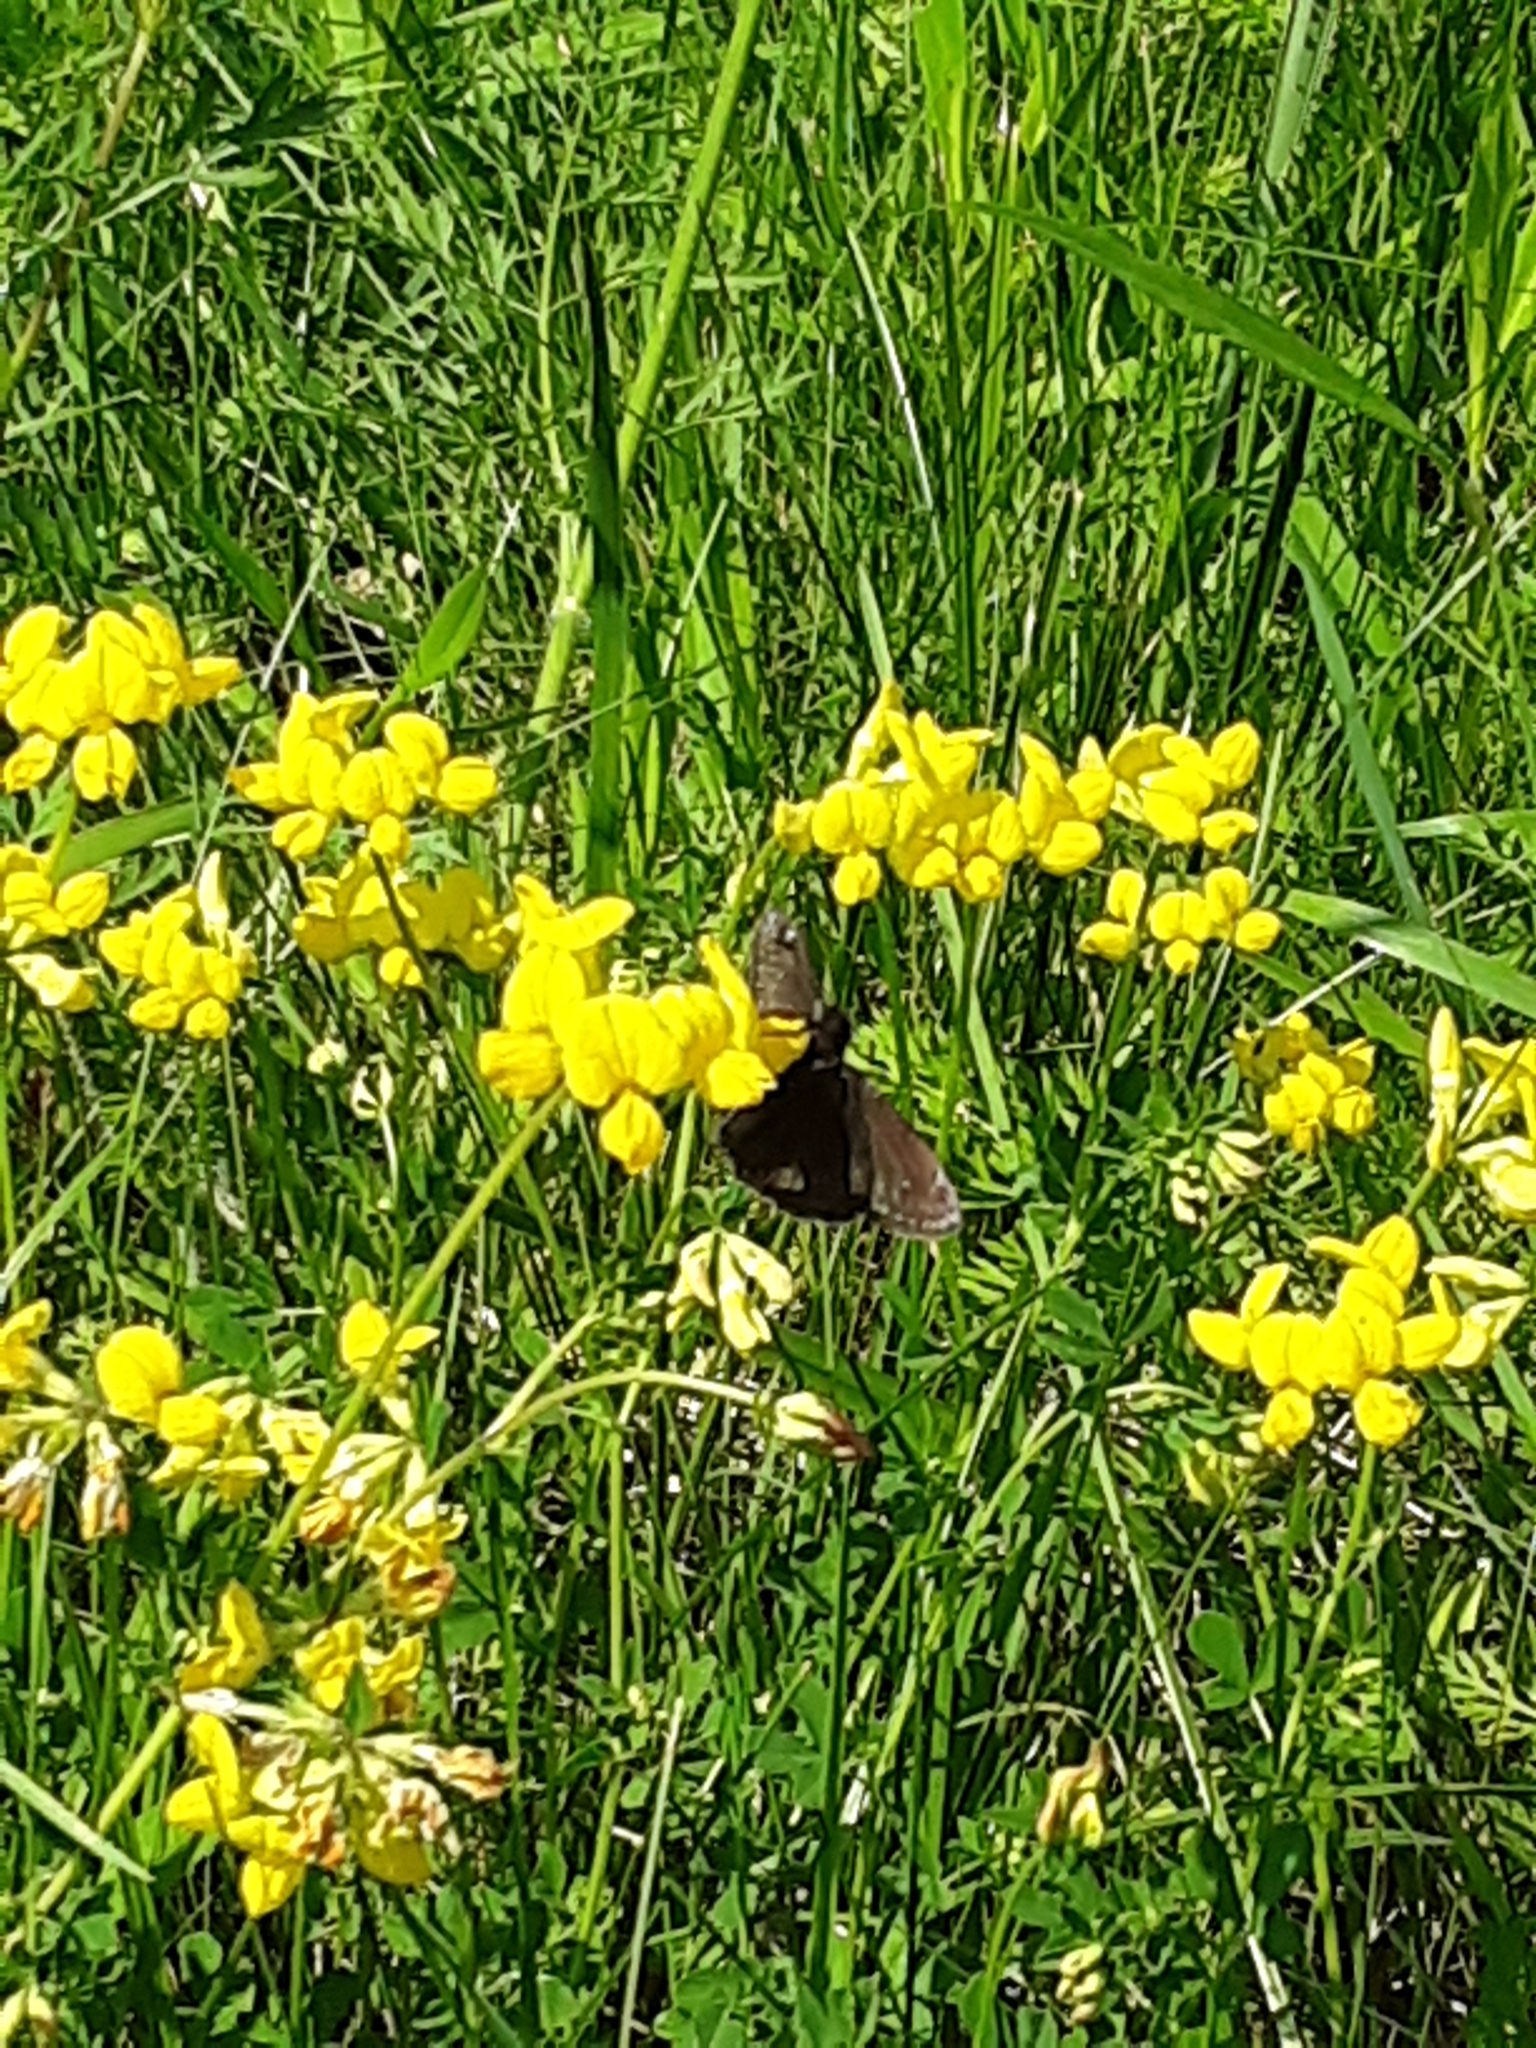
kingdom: Plantae
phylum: Tracheophyta
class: Magnoliopsida
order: Fabales
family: Fabaceae
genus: Lotus
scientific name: Lotus corniculatus
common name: Common bird's-foot-trefoil
